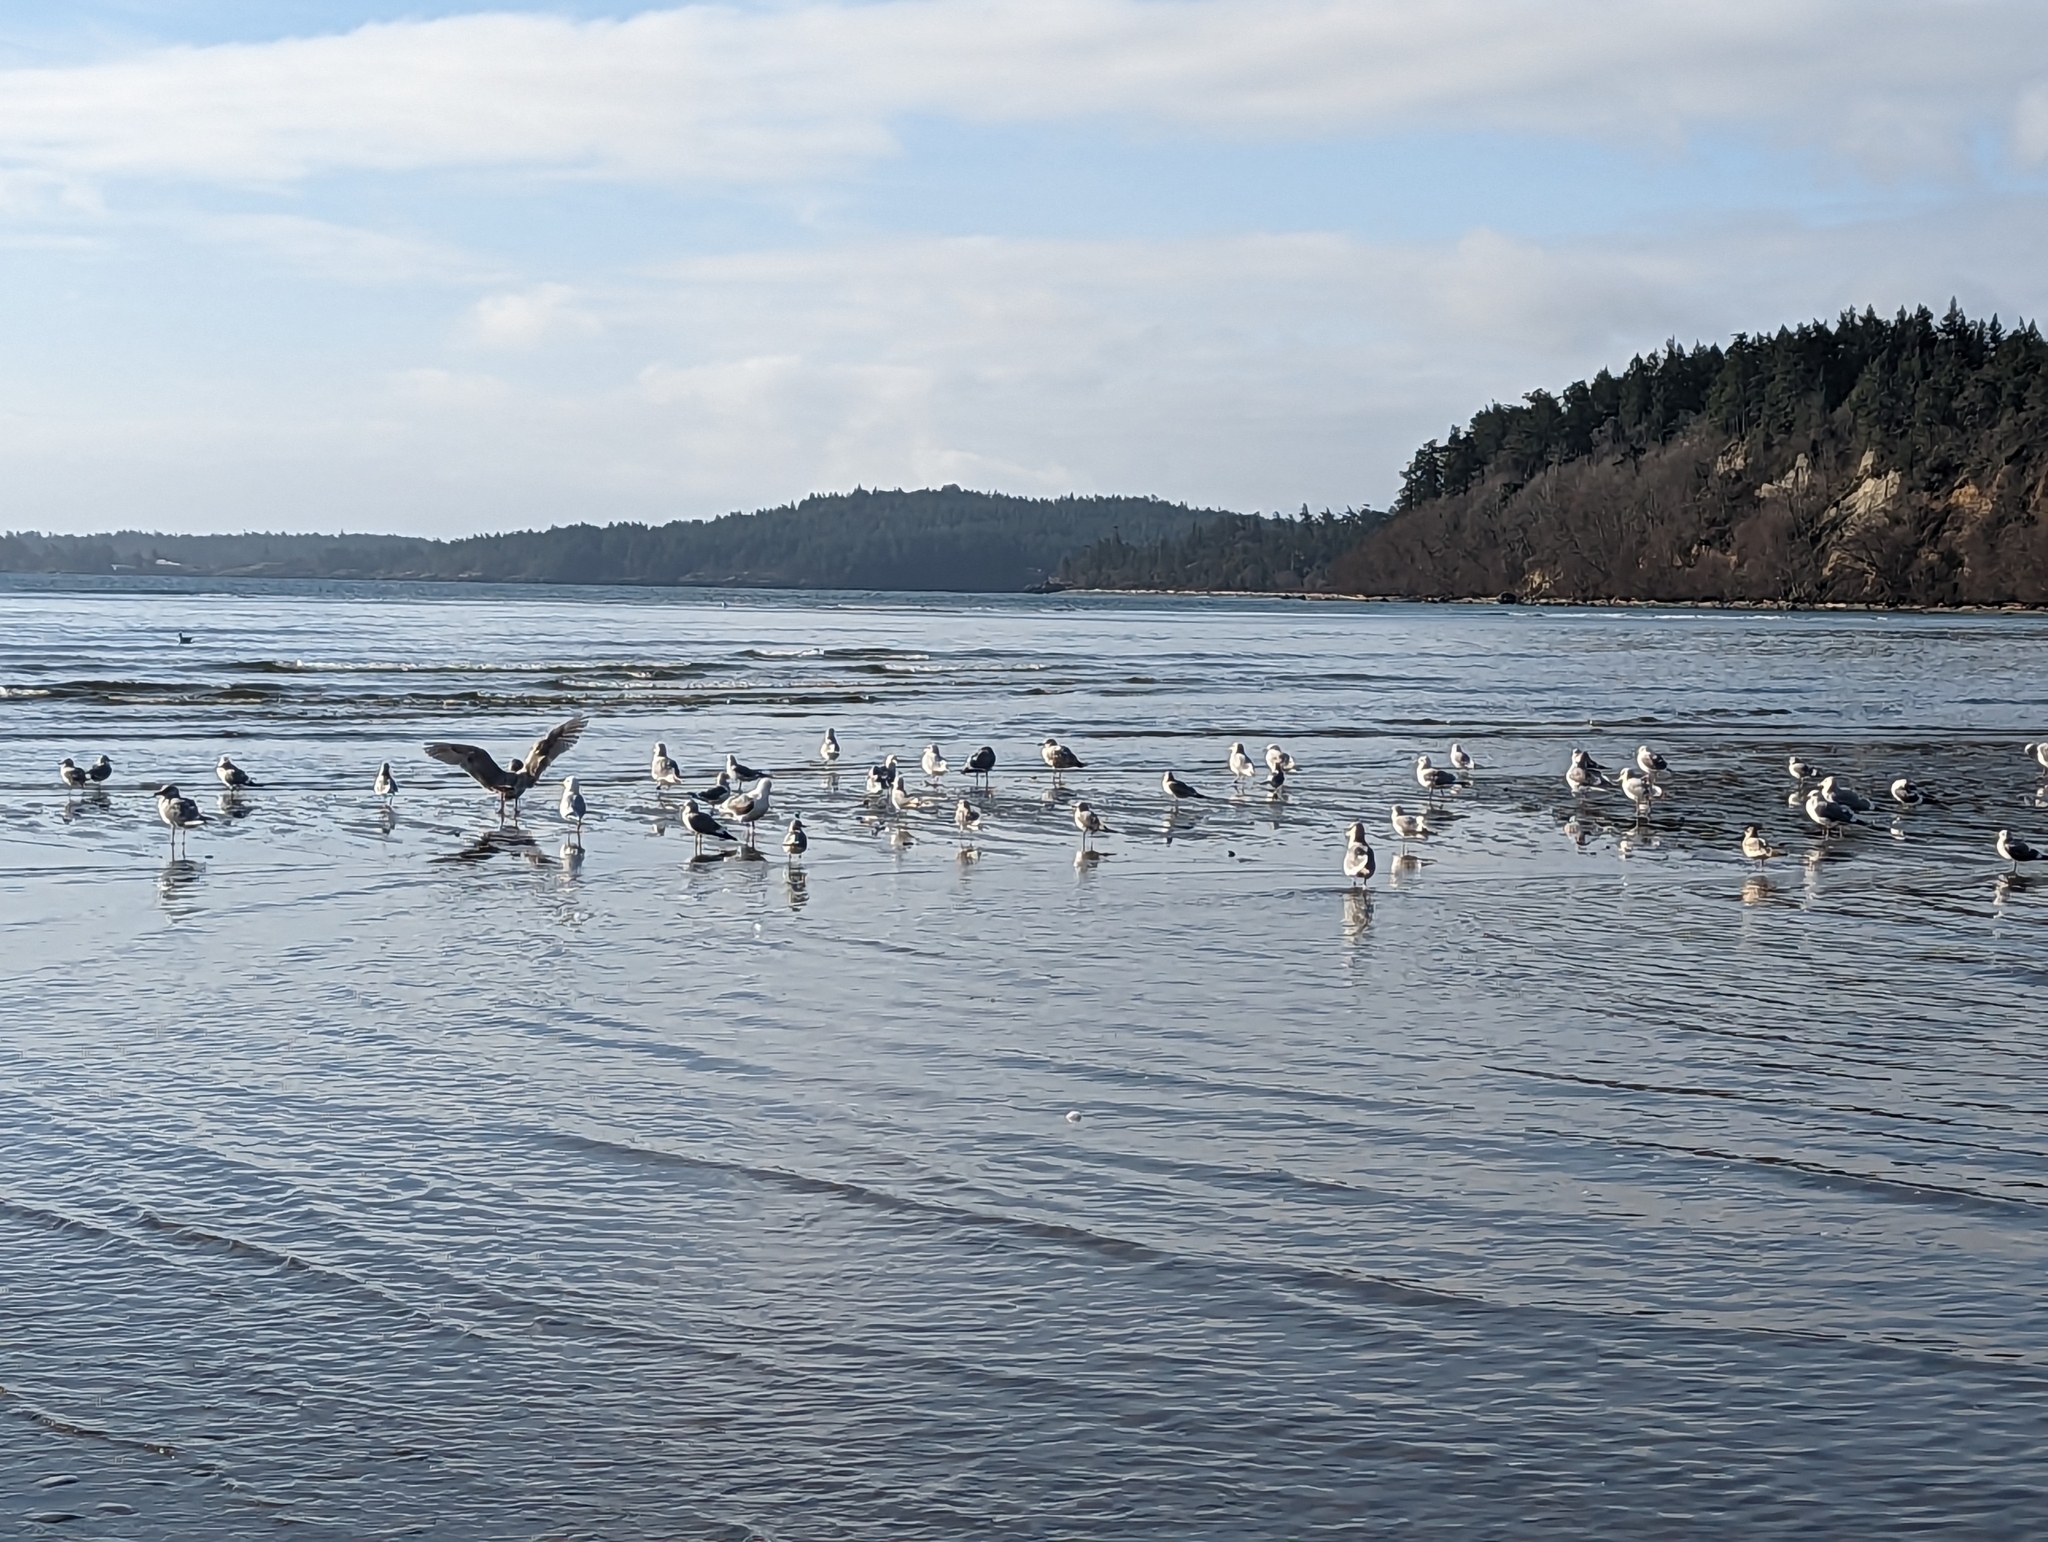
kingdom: Animalia
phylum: Chordata
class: Aves
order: Charadriiformes
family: Laridae
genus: Larus
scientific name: Larus brachyrhynchus
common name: Short-billed gull
